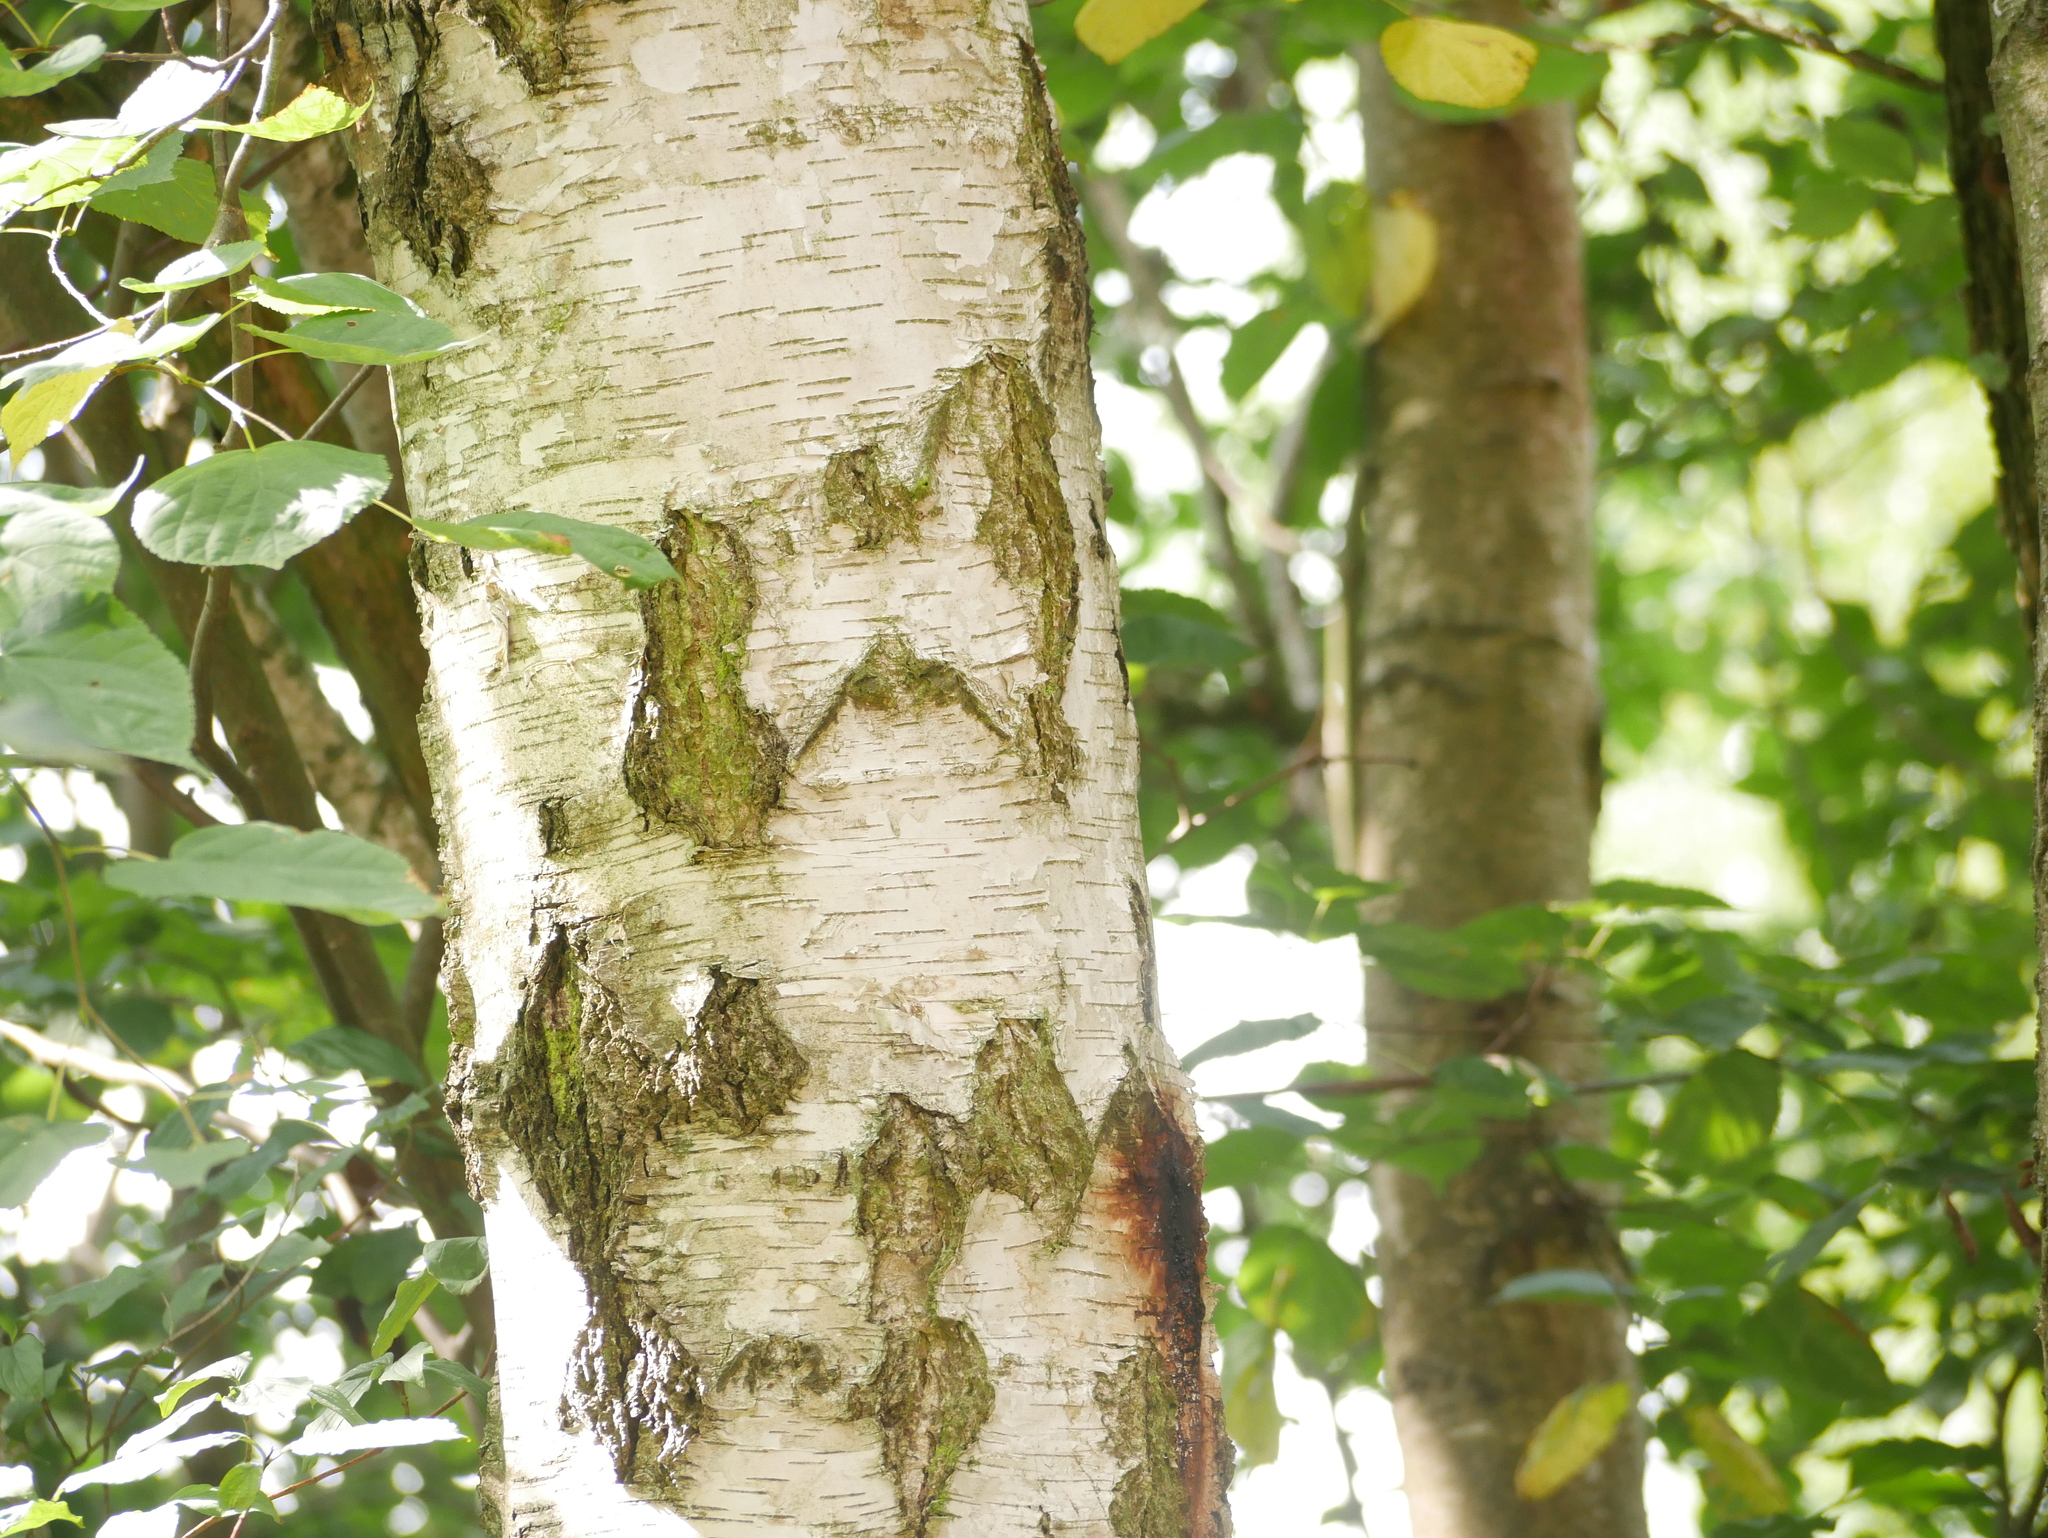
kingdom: Plantae
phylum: Tracheophyta
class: Magnoliopsida
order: Fagales
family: Betulaceae
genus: Betula
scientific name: Betula pendula
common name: Silver birch
